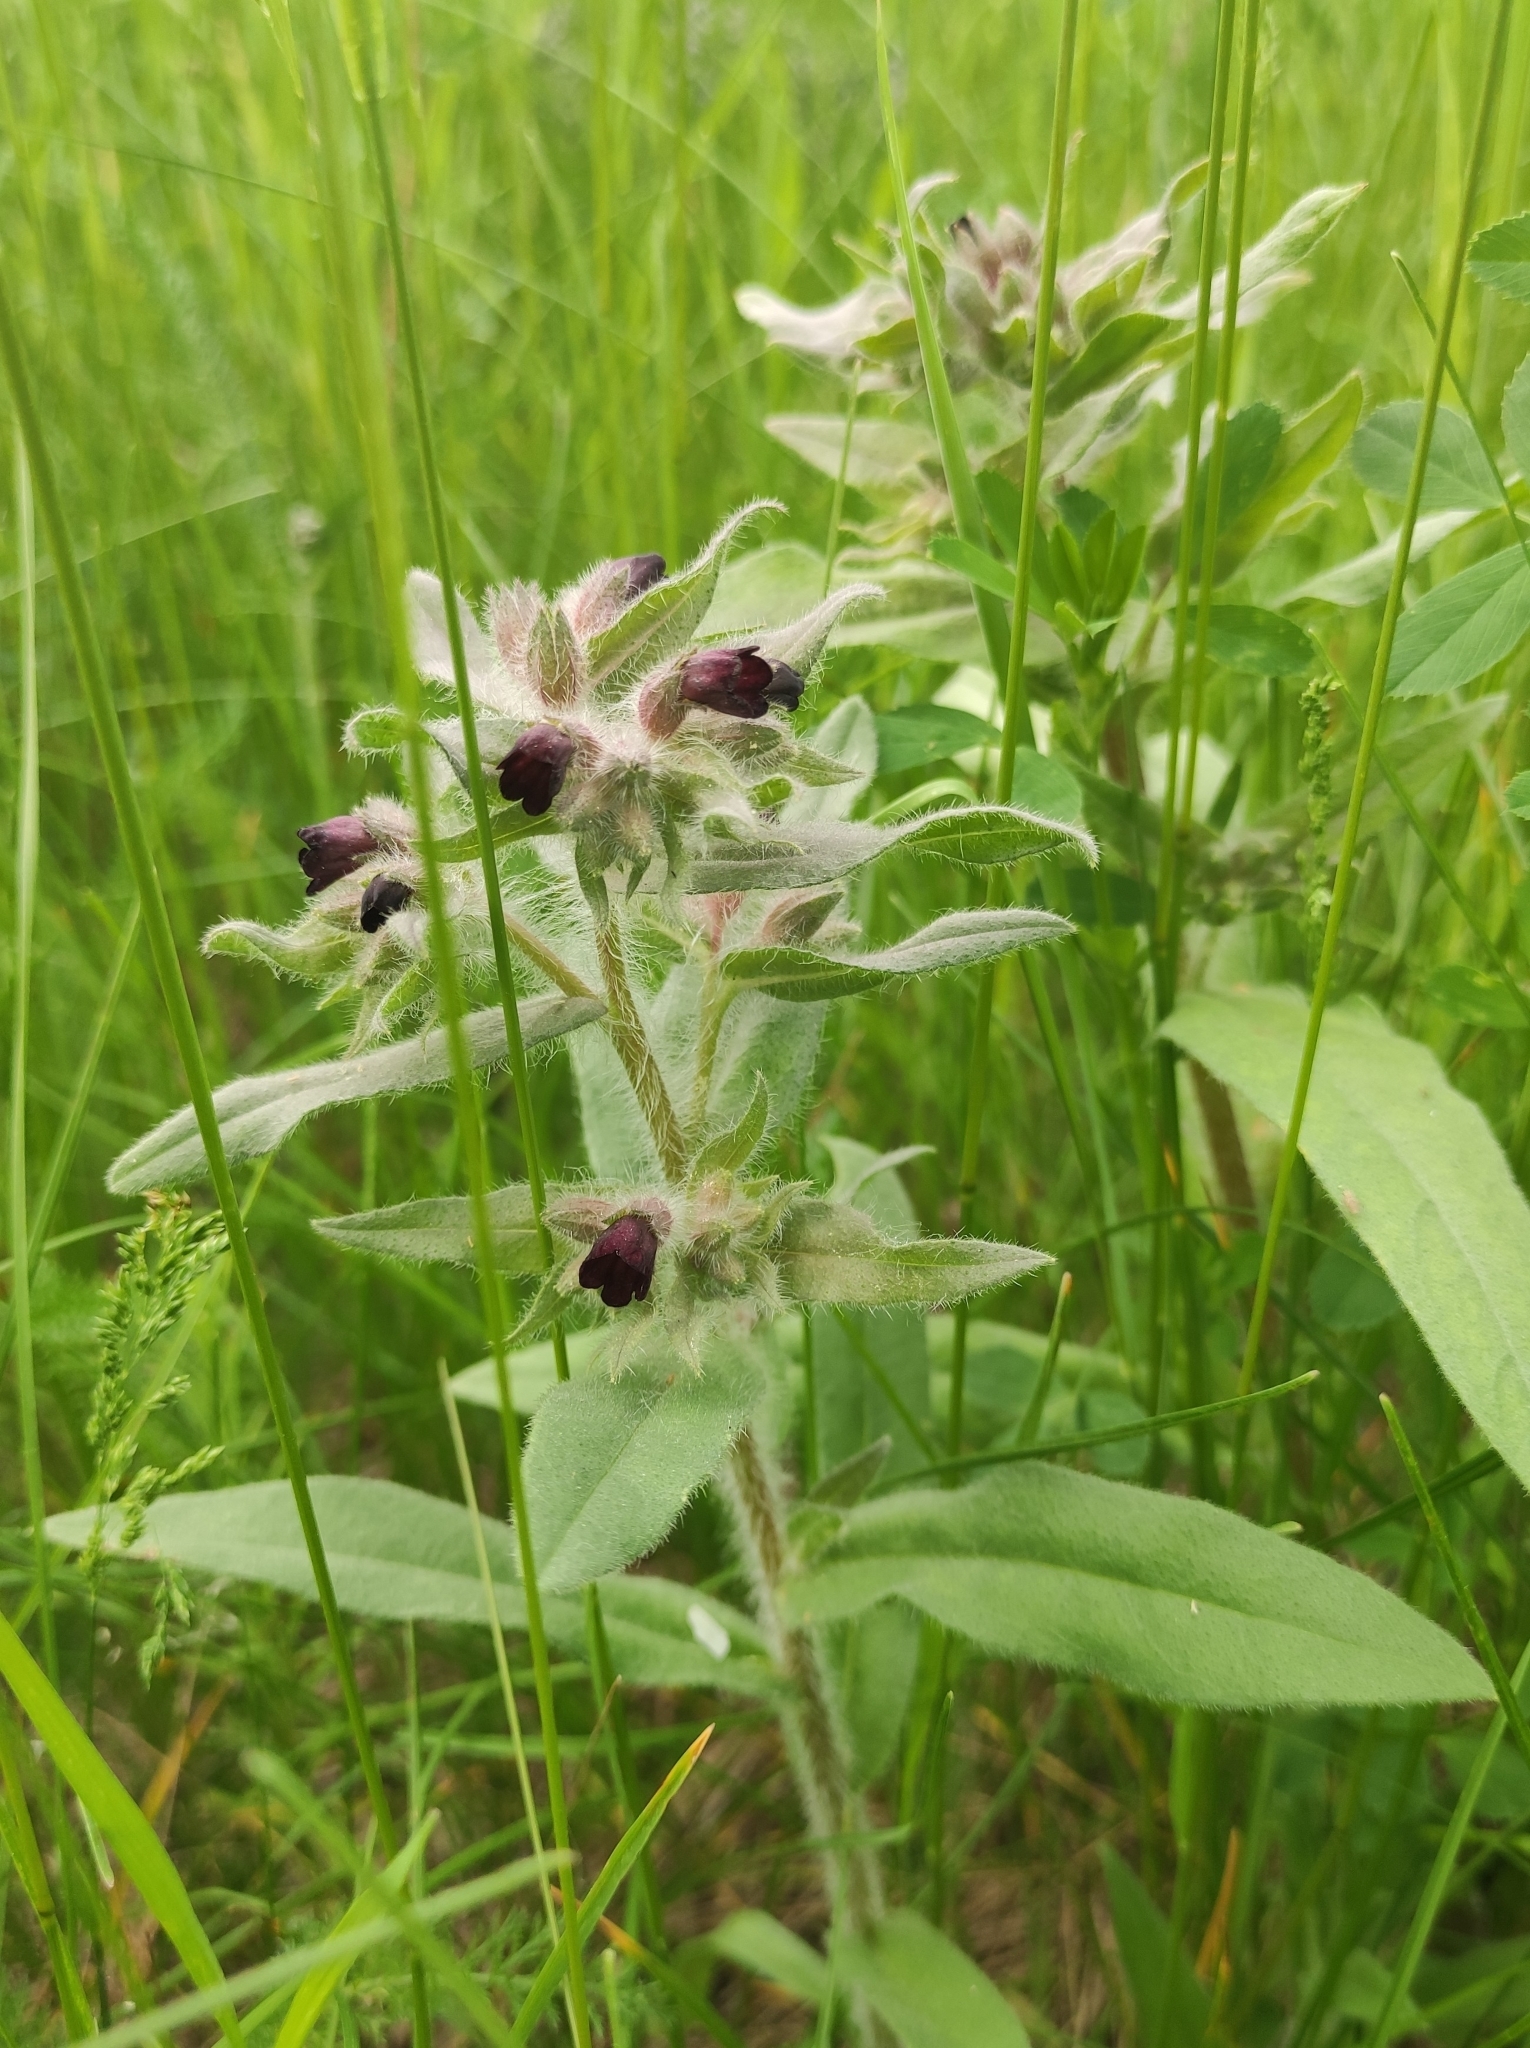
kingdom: Plantae
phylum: Tracheophyta
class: Magnoliopsida
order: Boraginales
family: Boraginaceae
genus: Nonea
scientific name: Nonea pulla
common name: Brown nonea
